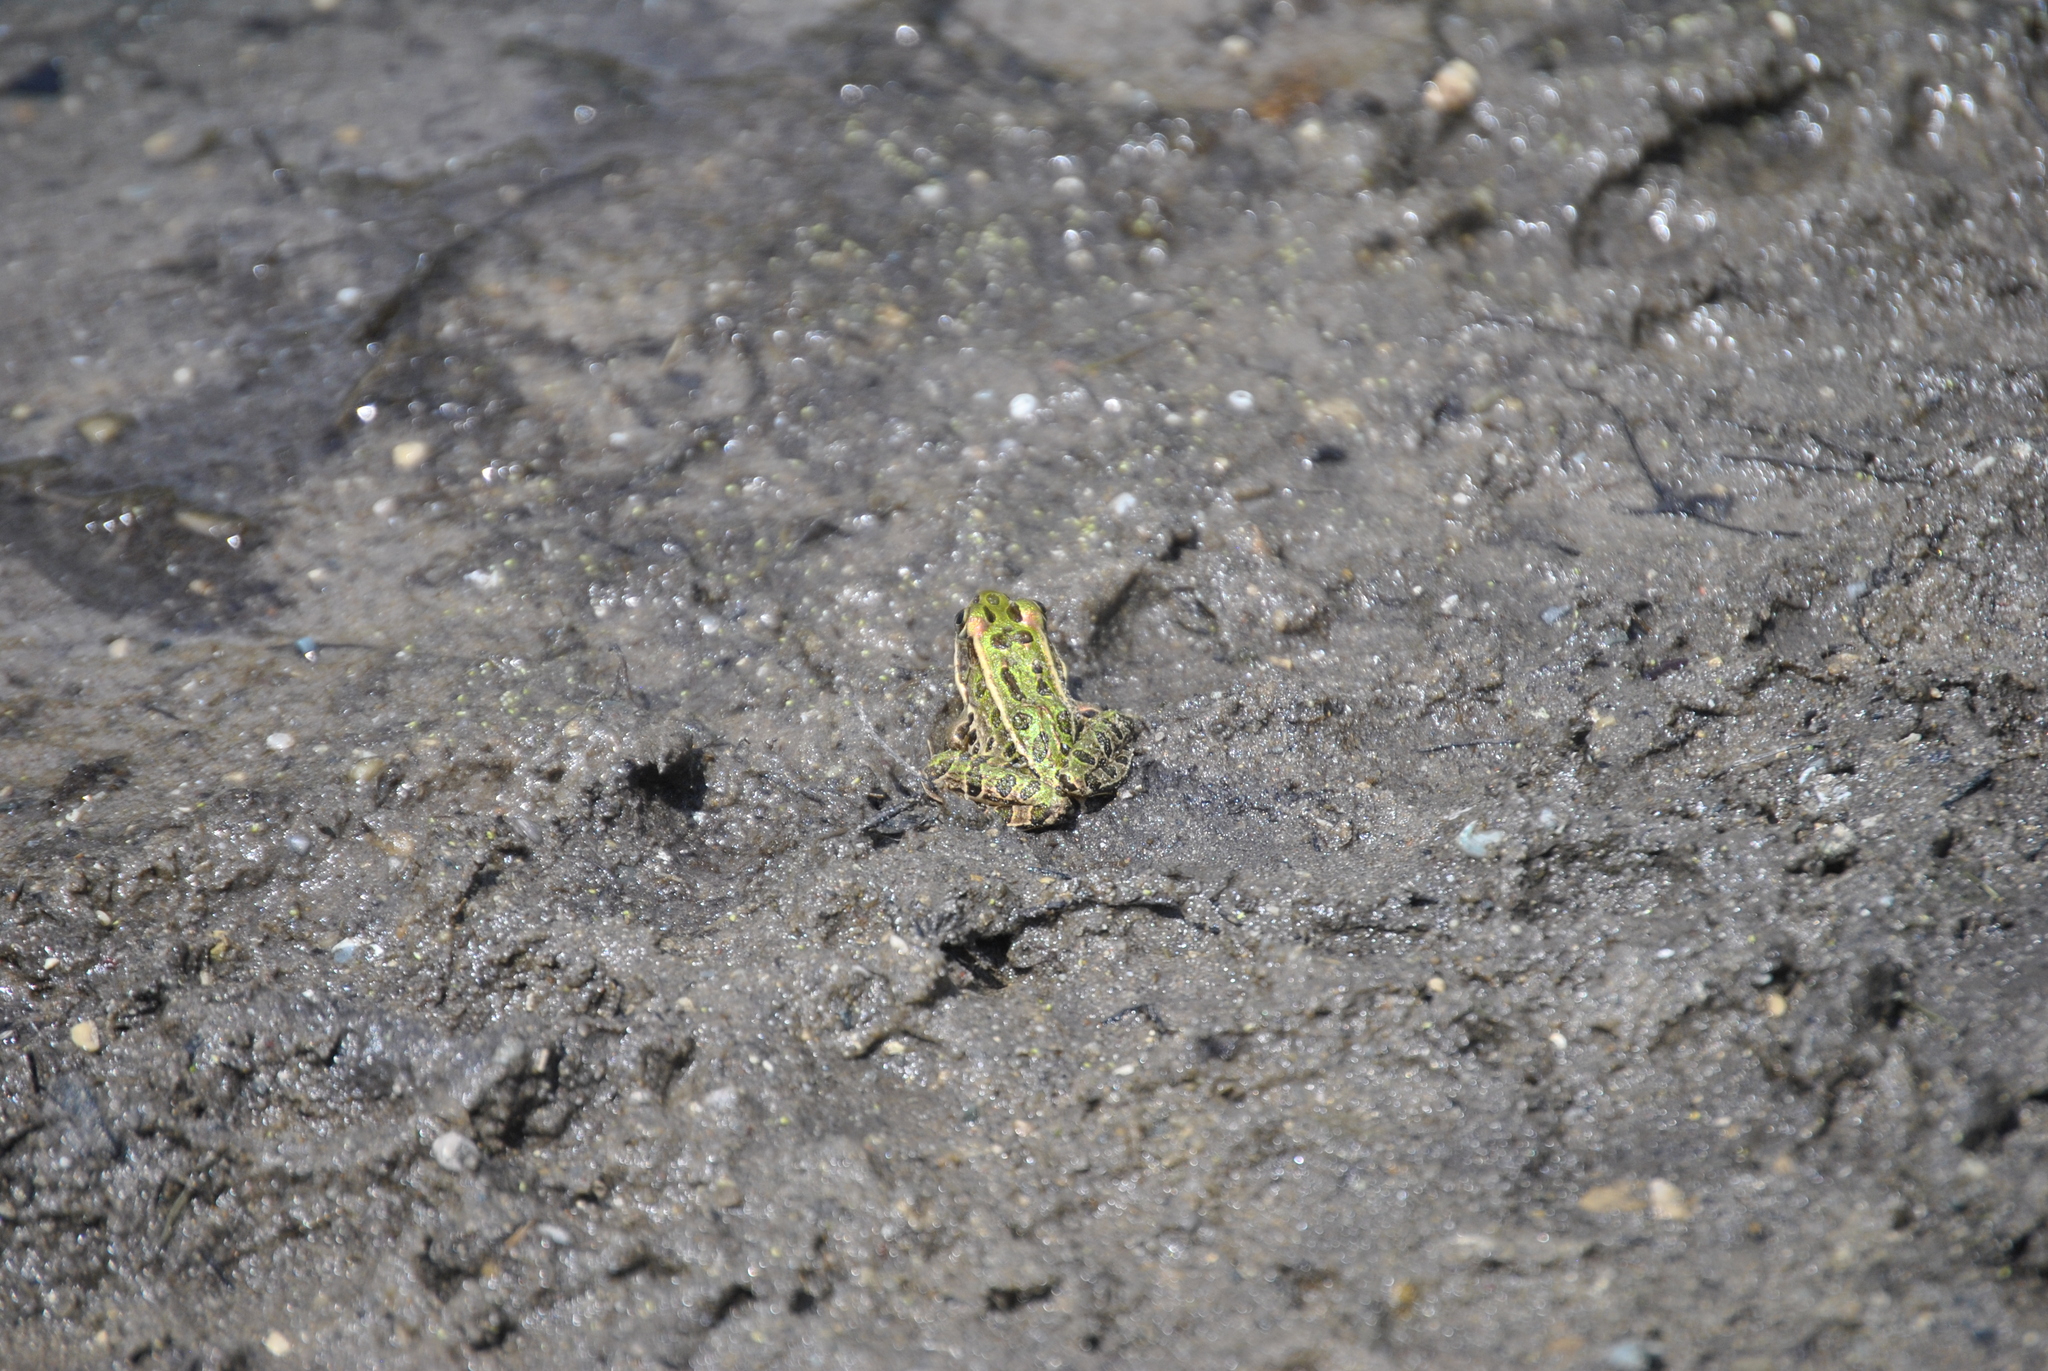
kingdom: Animalia
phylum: Chordata
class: Amphibia
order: Anura
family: Ranidae
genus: Lithobates
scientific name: Lithobates pipiens
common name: Northern leopard frog
